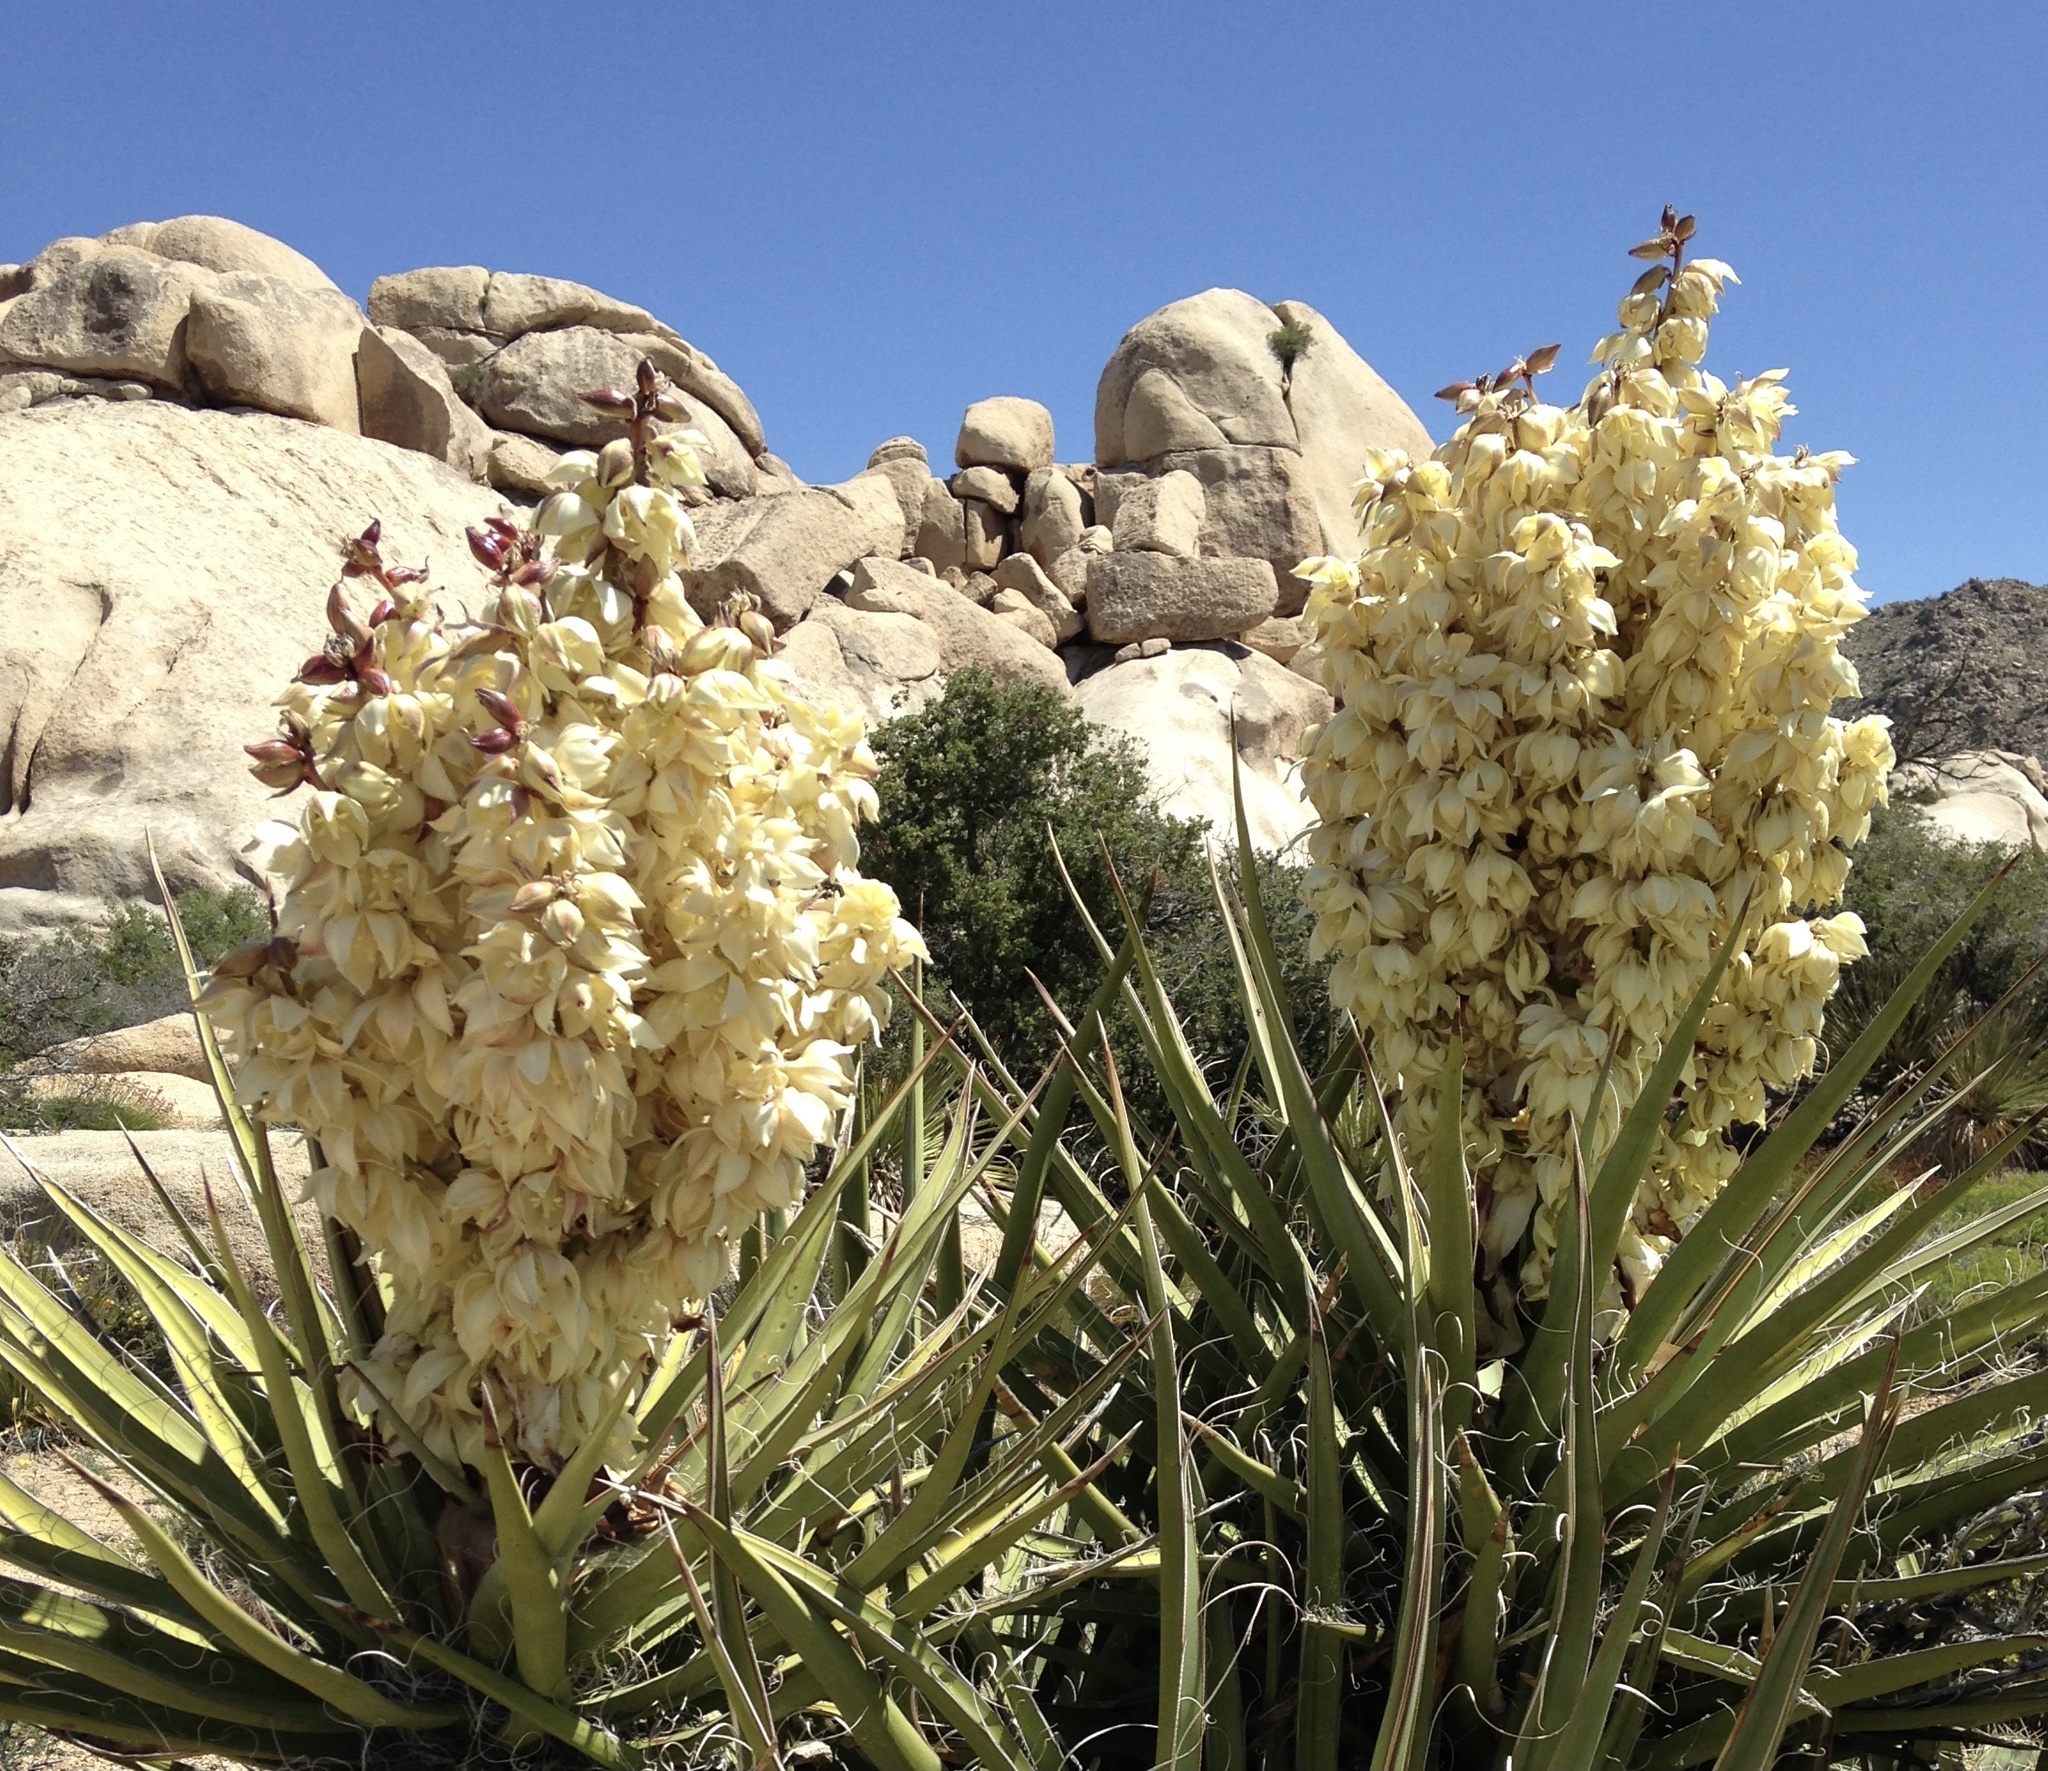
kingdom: Plantae
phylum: Tracheophyta
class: Liliopsida
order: Asparagales
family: Asparagaceae
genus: Yucca
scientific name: Yucca schidigera
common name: Mojave yucca
